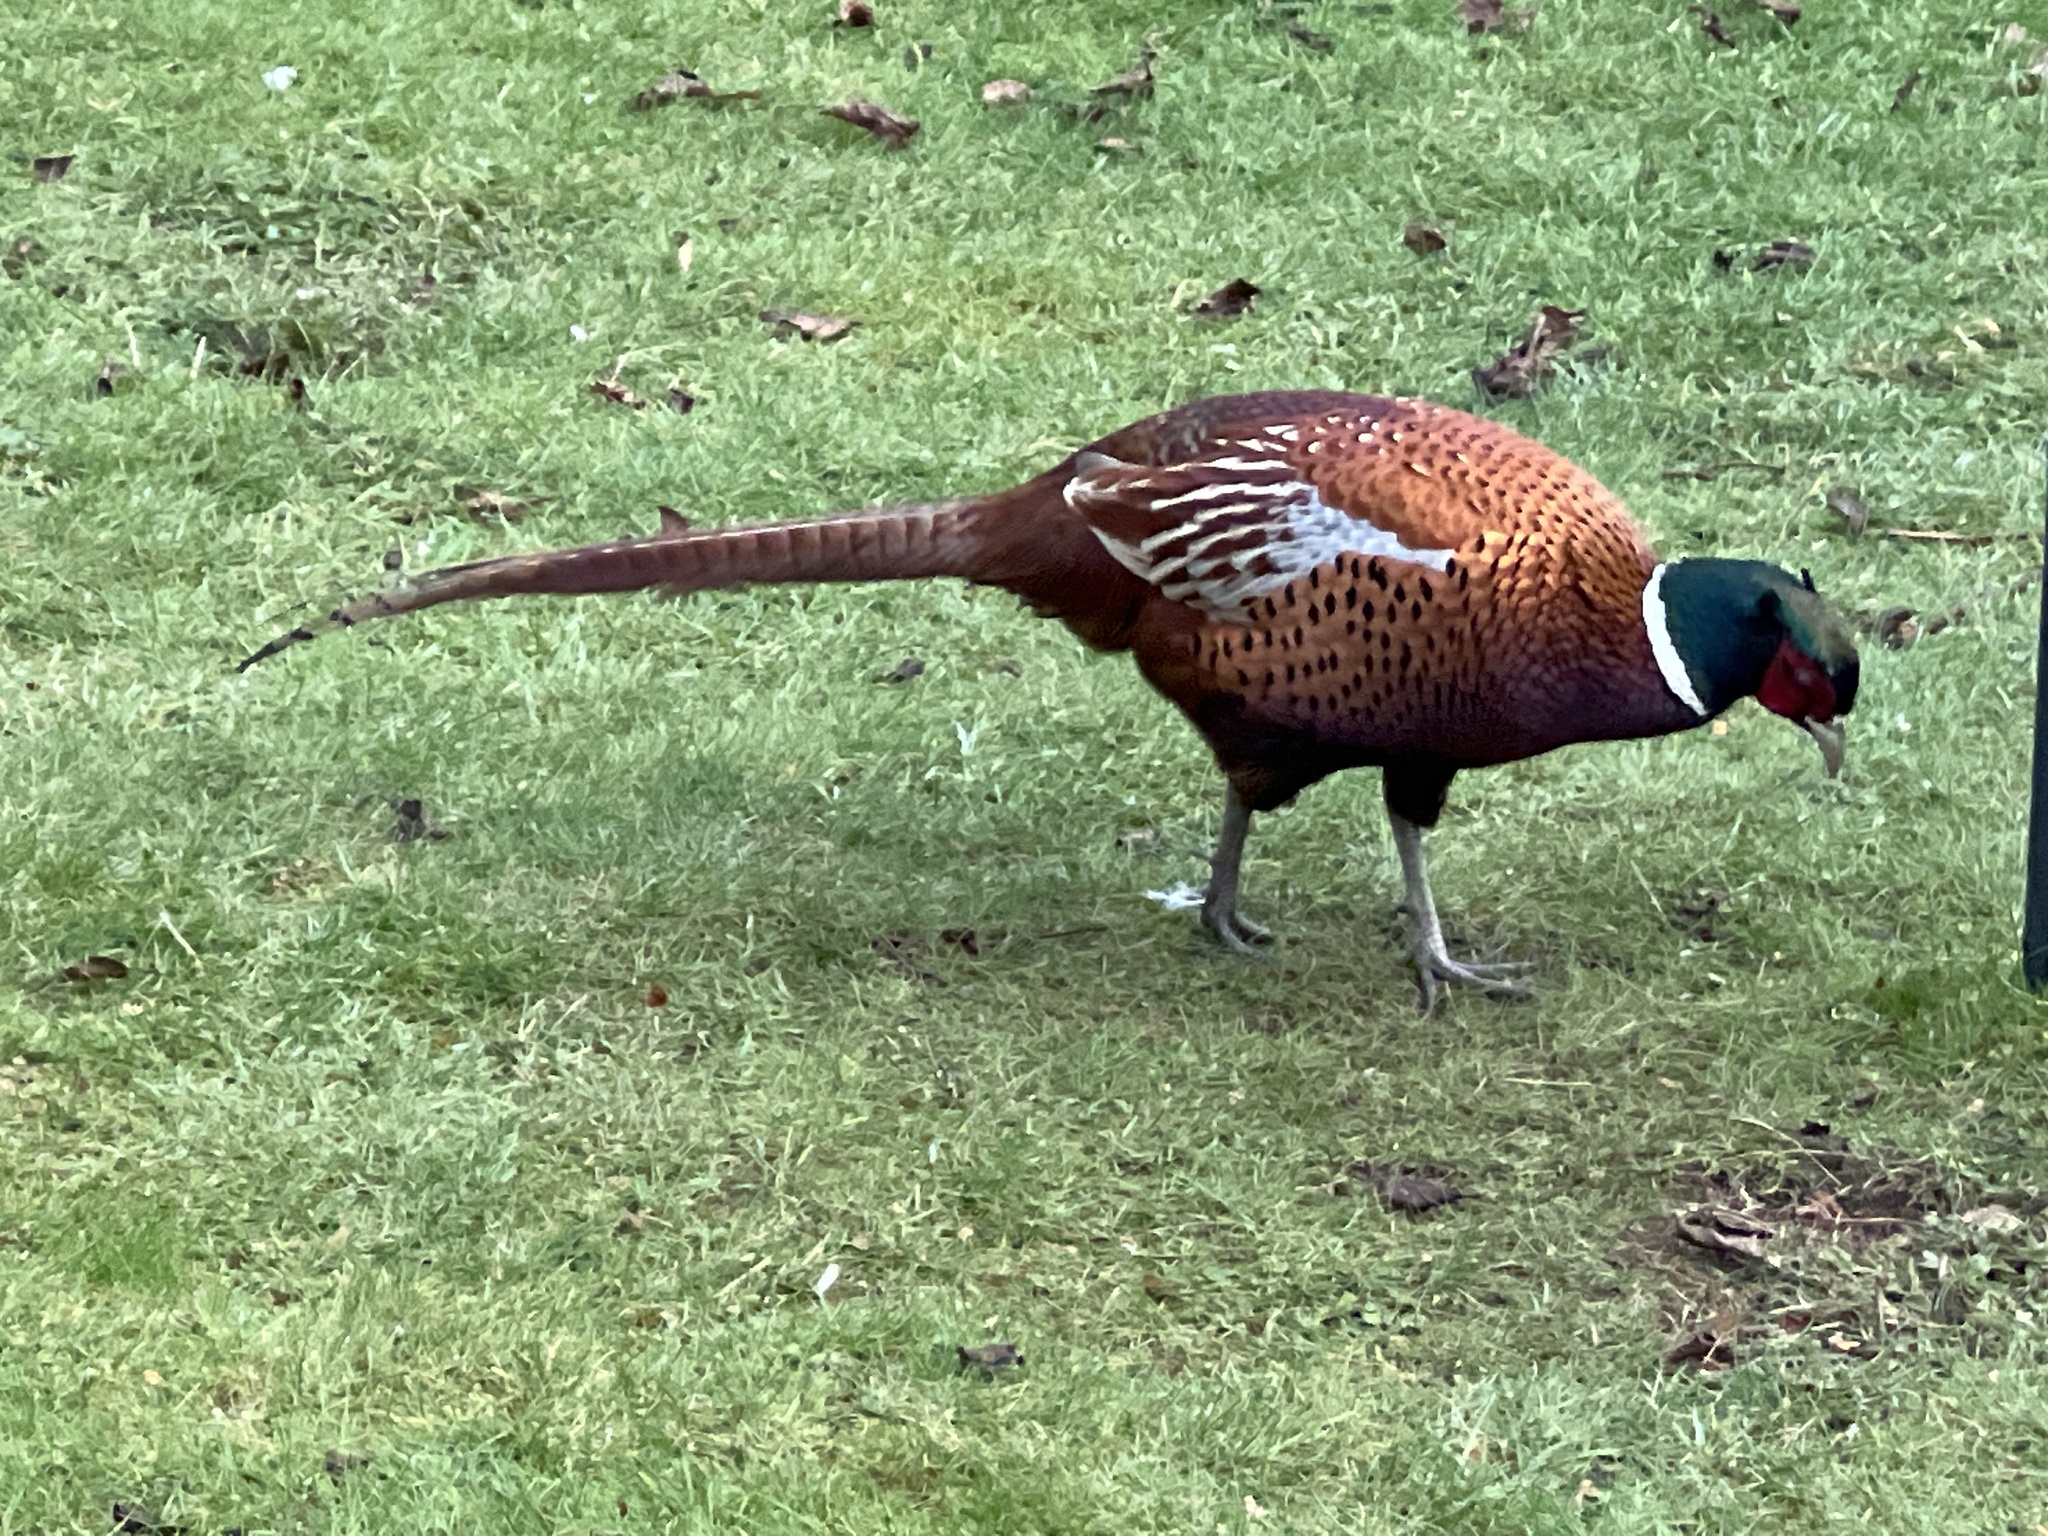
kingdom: Animalia
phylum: Chordata
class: Aves
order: Galliformes
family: Phasianidae
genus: Phasianus
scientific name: Phasianus colchicus
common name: Common pheasant
